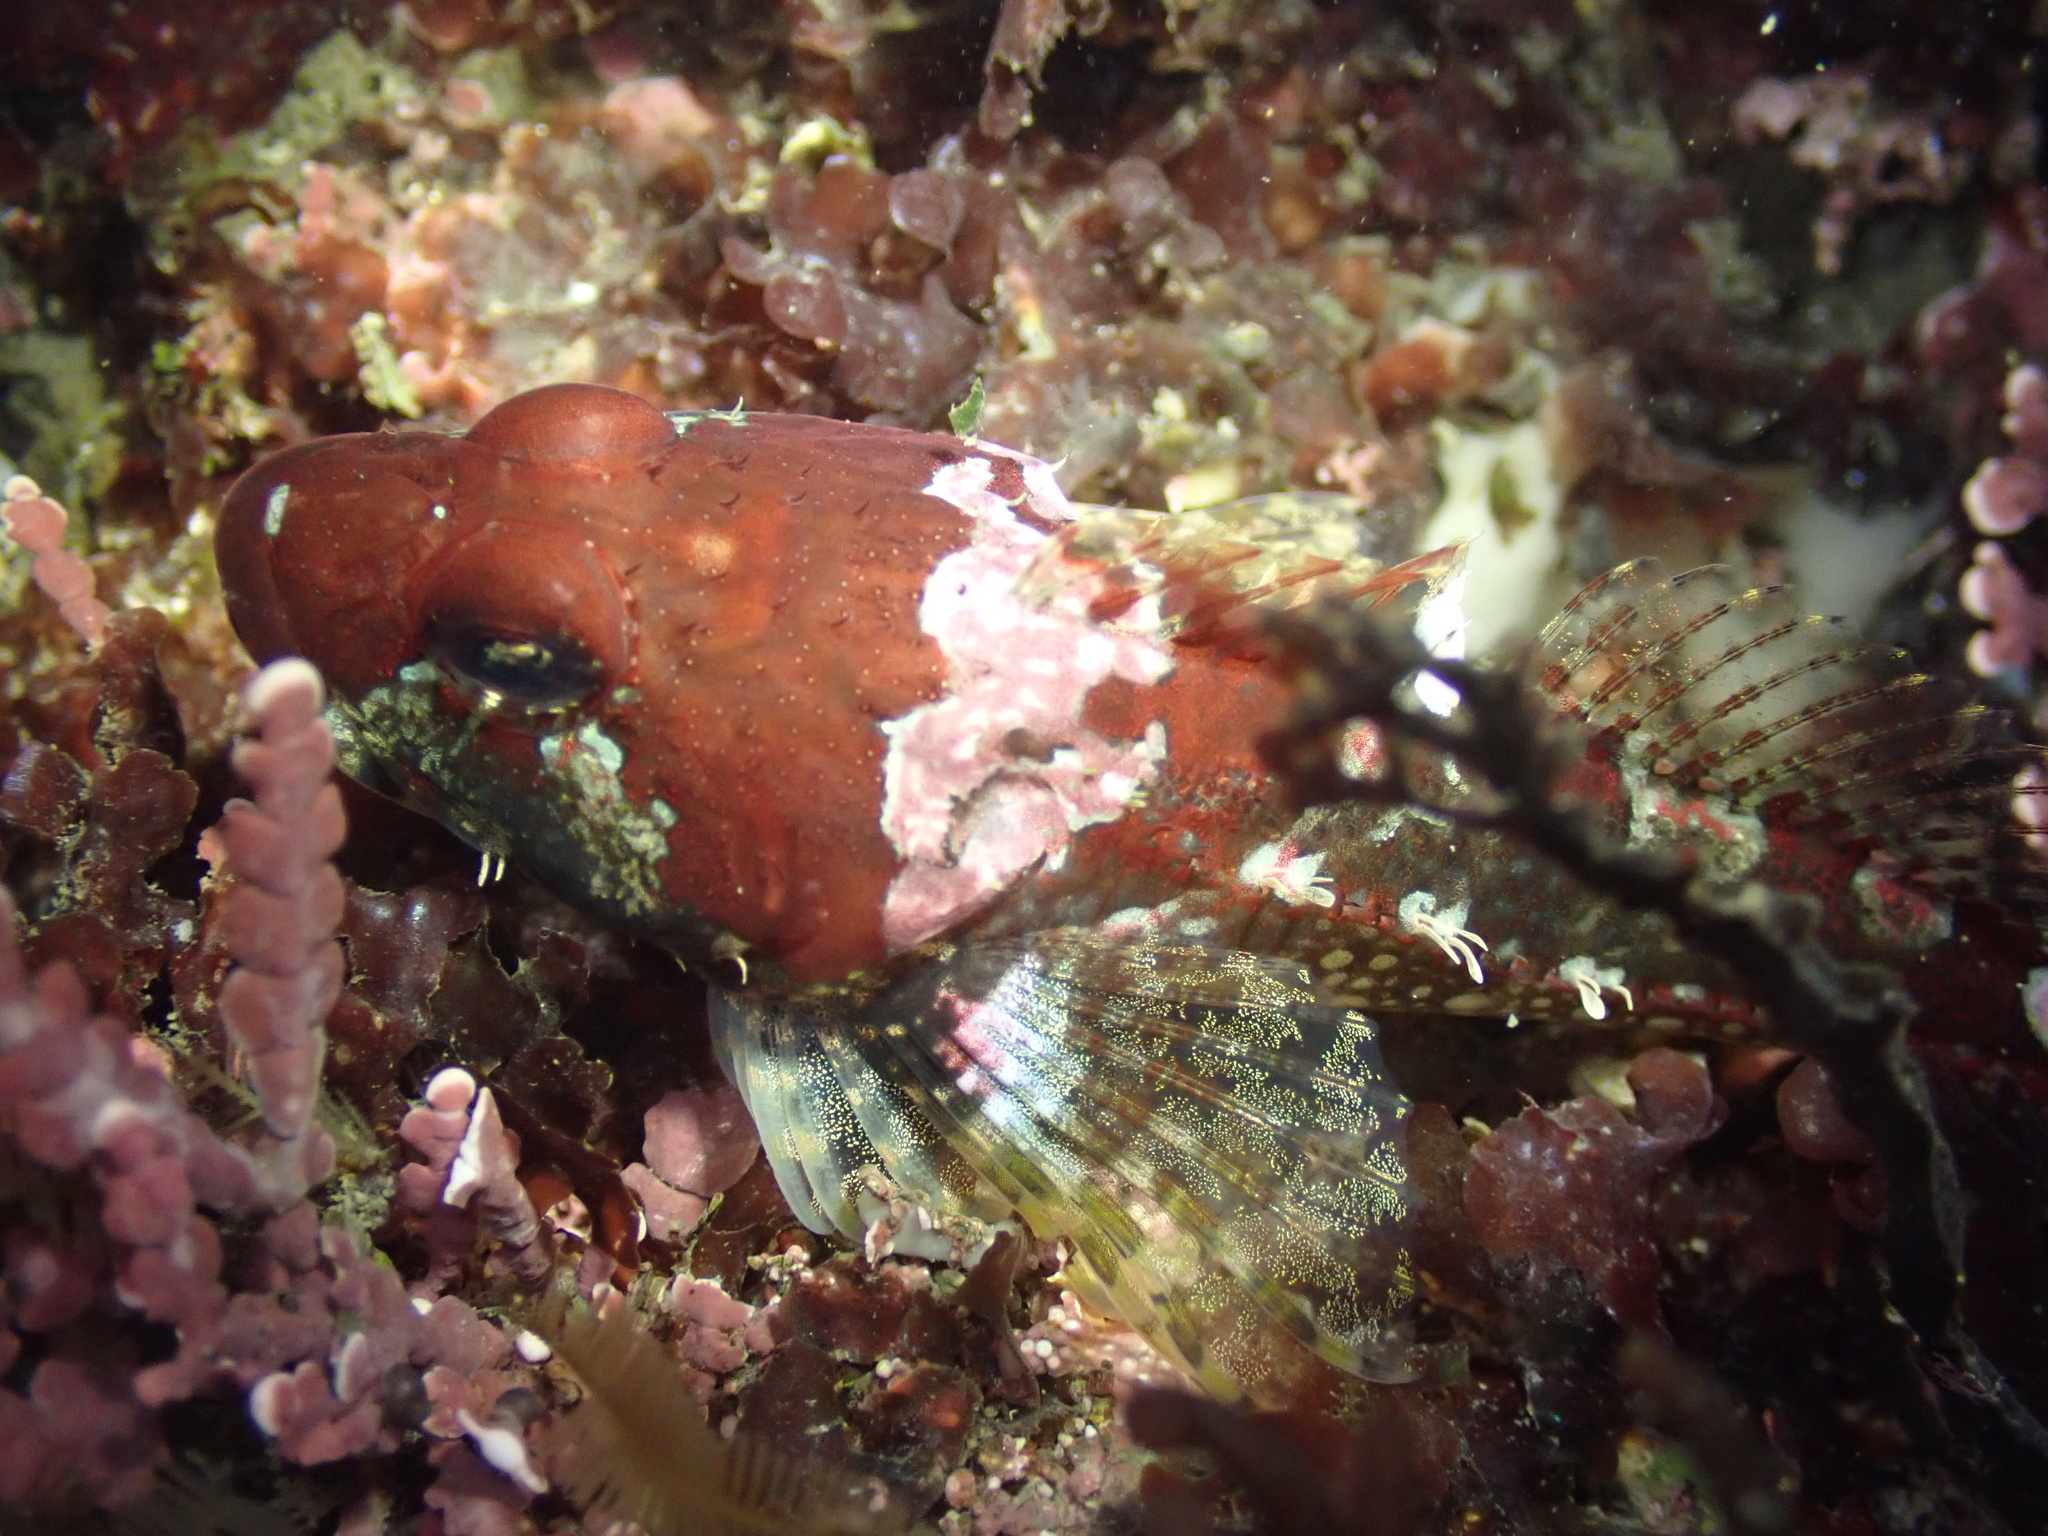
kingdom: Animalia
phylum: Chordata
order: Scorpaeniformes
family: Cottidae
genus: Artedius
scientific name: Artedius lateralis
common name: Smooth-head sculpin
